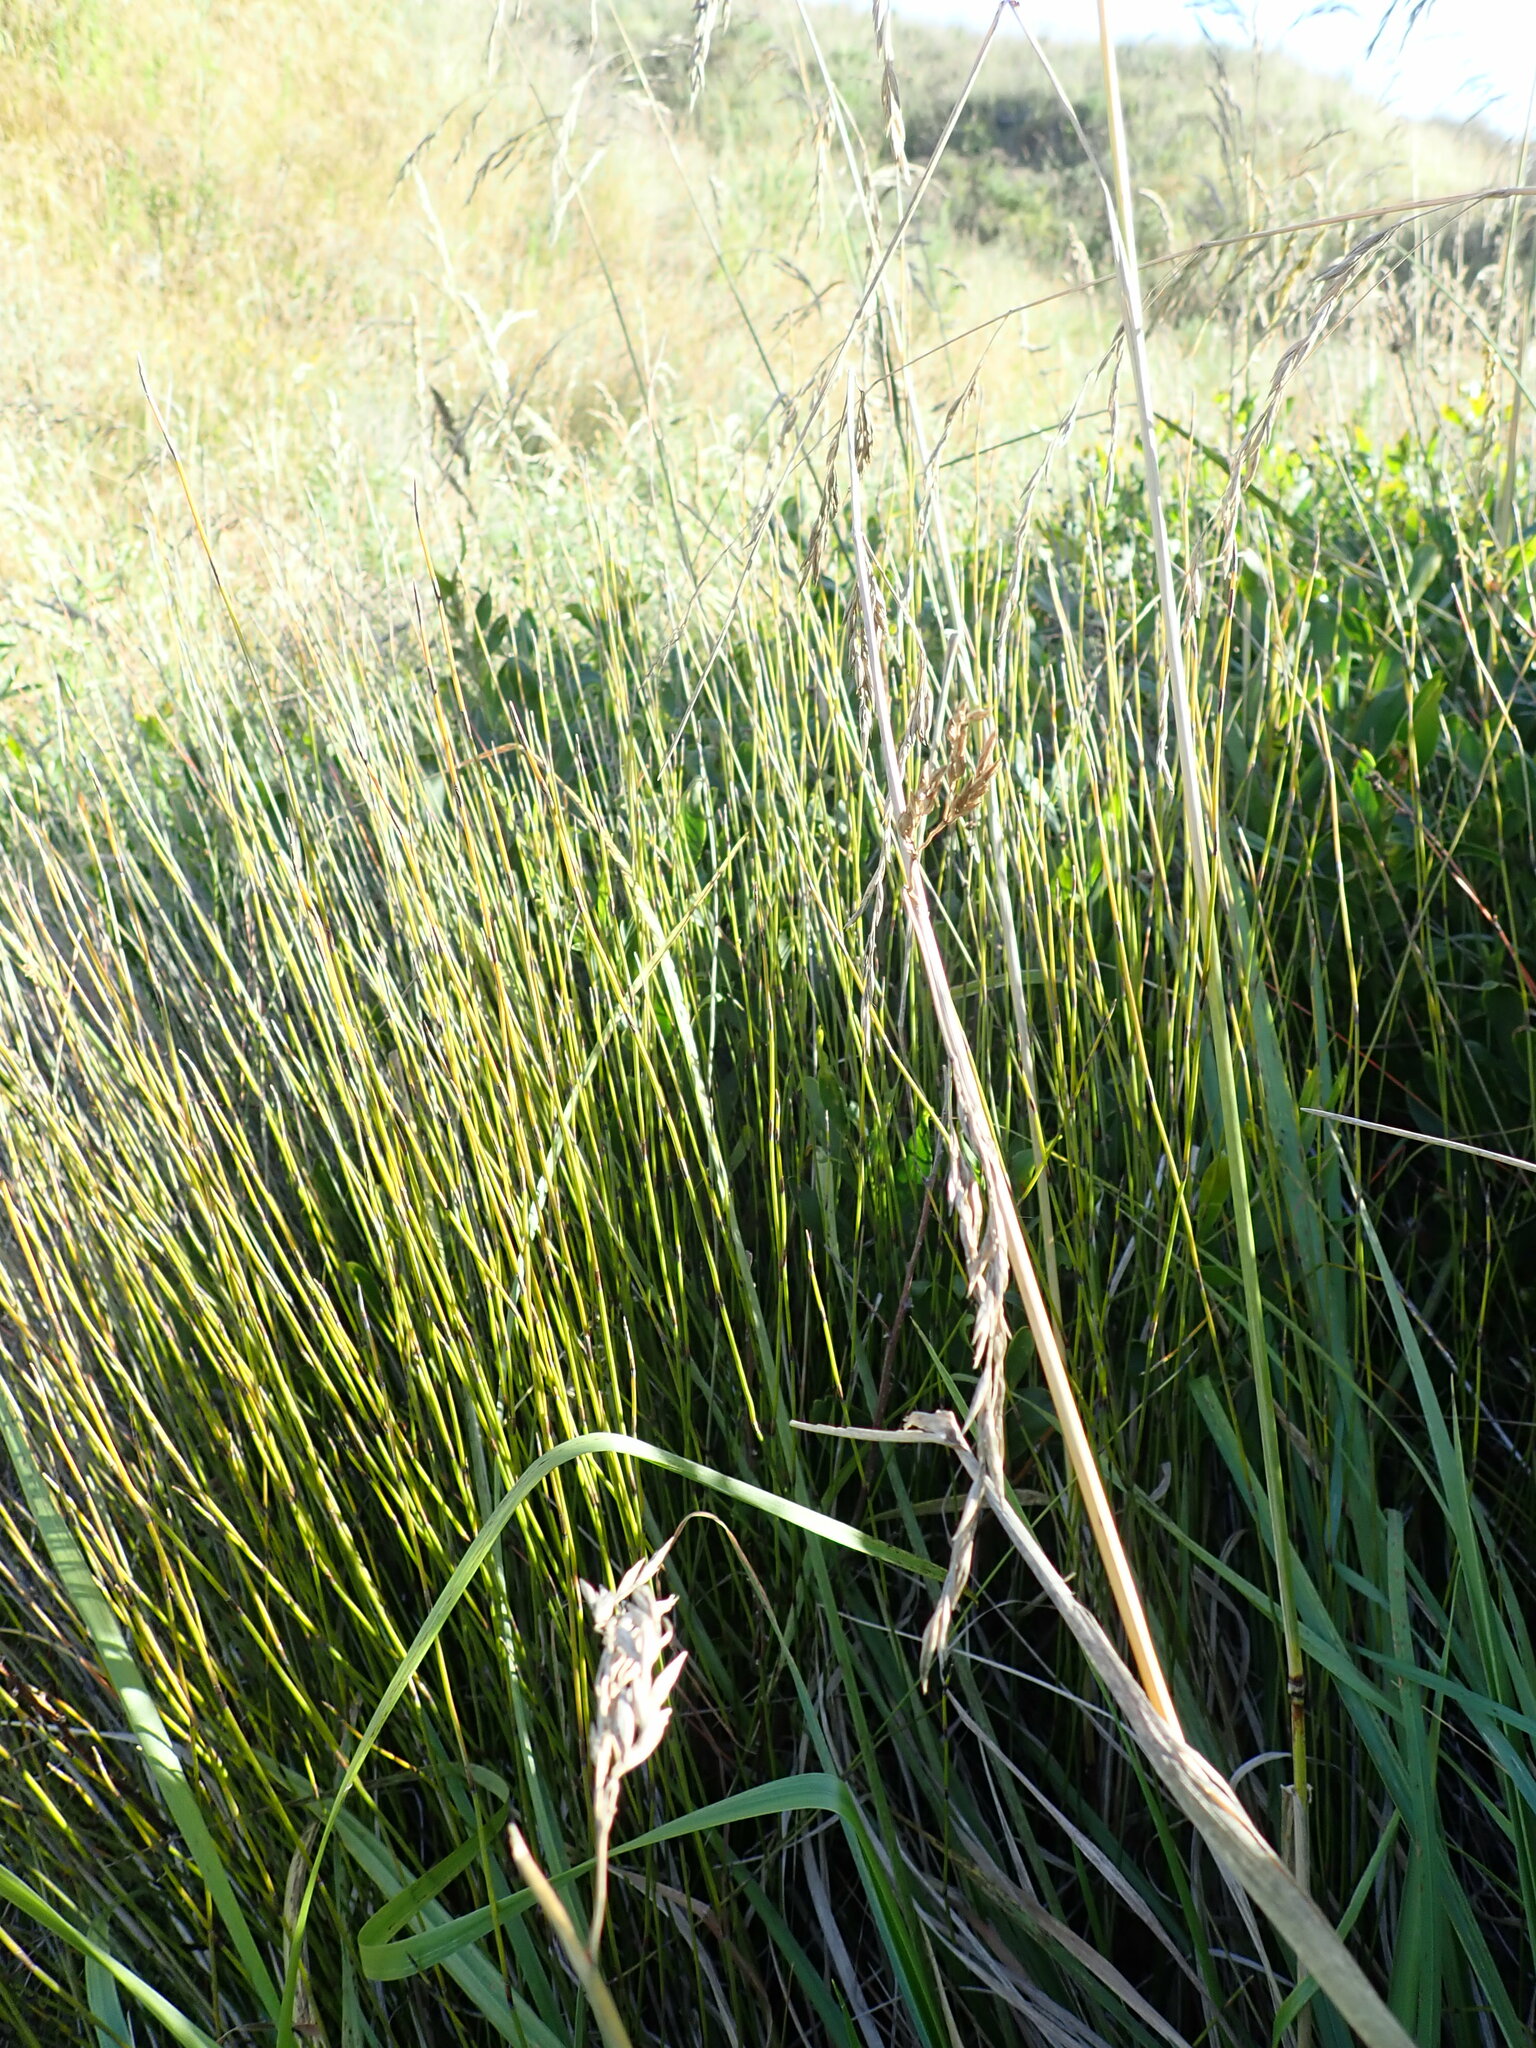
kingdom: Plantae
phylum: Tracheophyta
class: Liliopsida
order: Poales
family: Restionaceae
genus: Apodasmia
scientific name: Apodasmia similis
